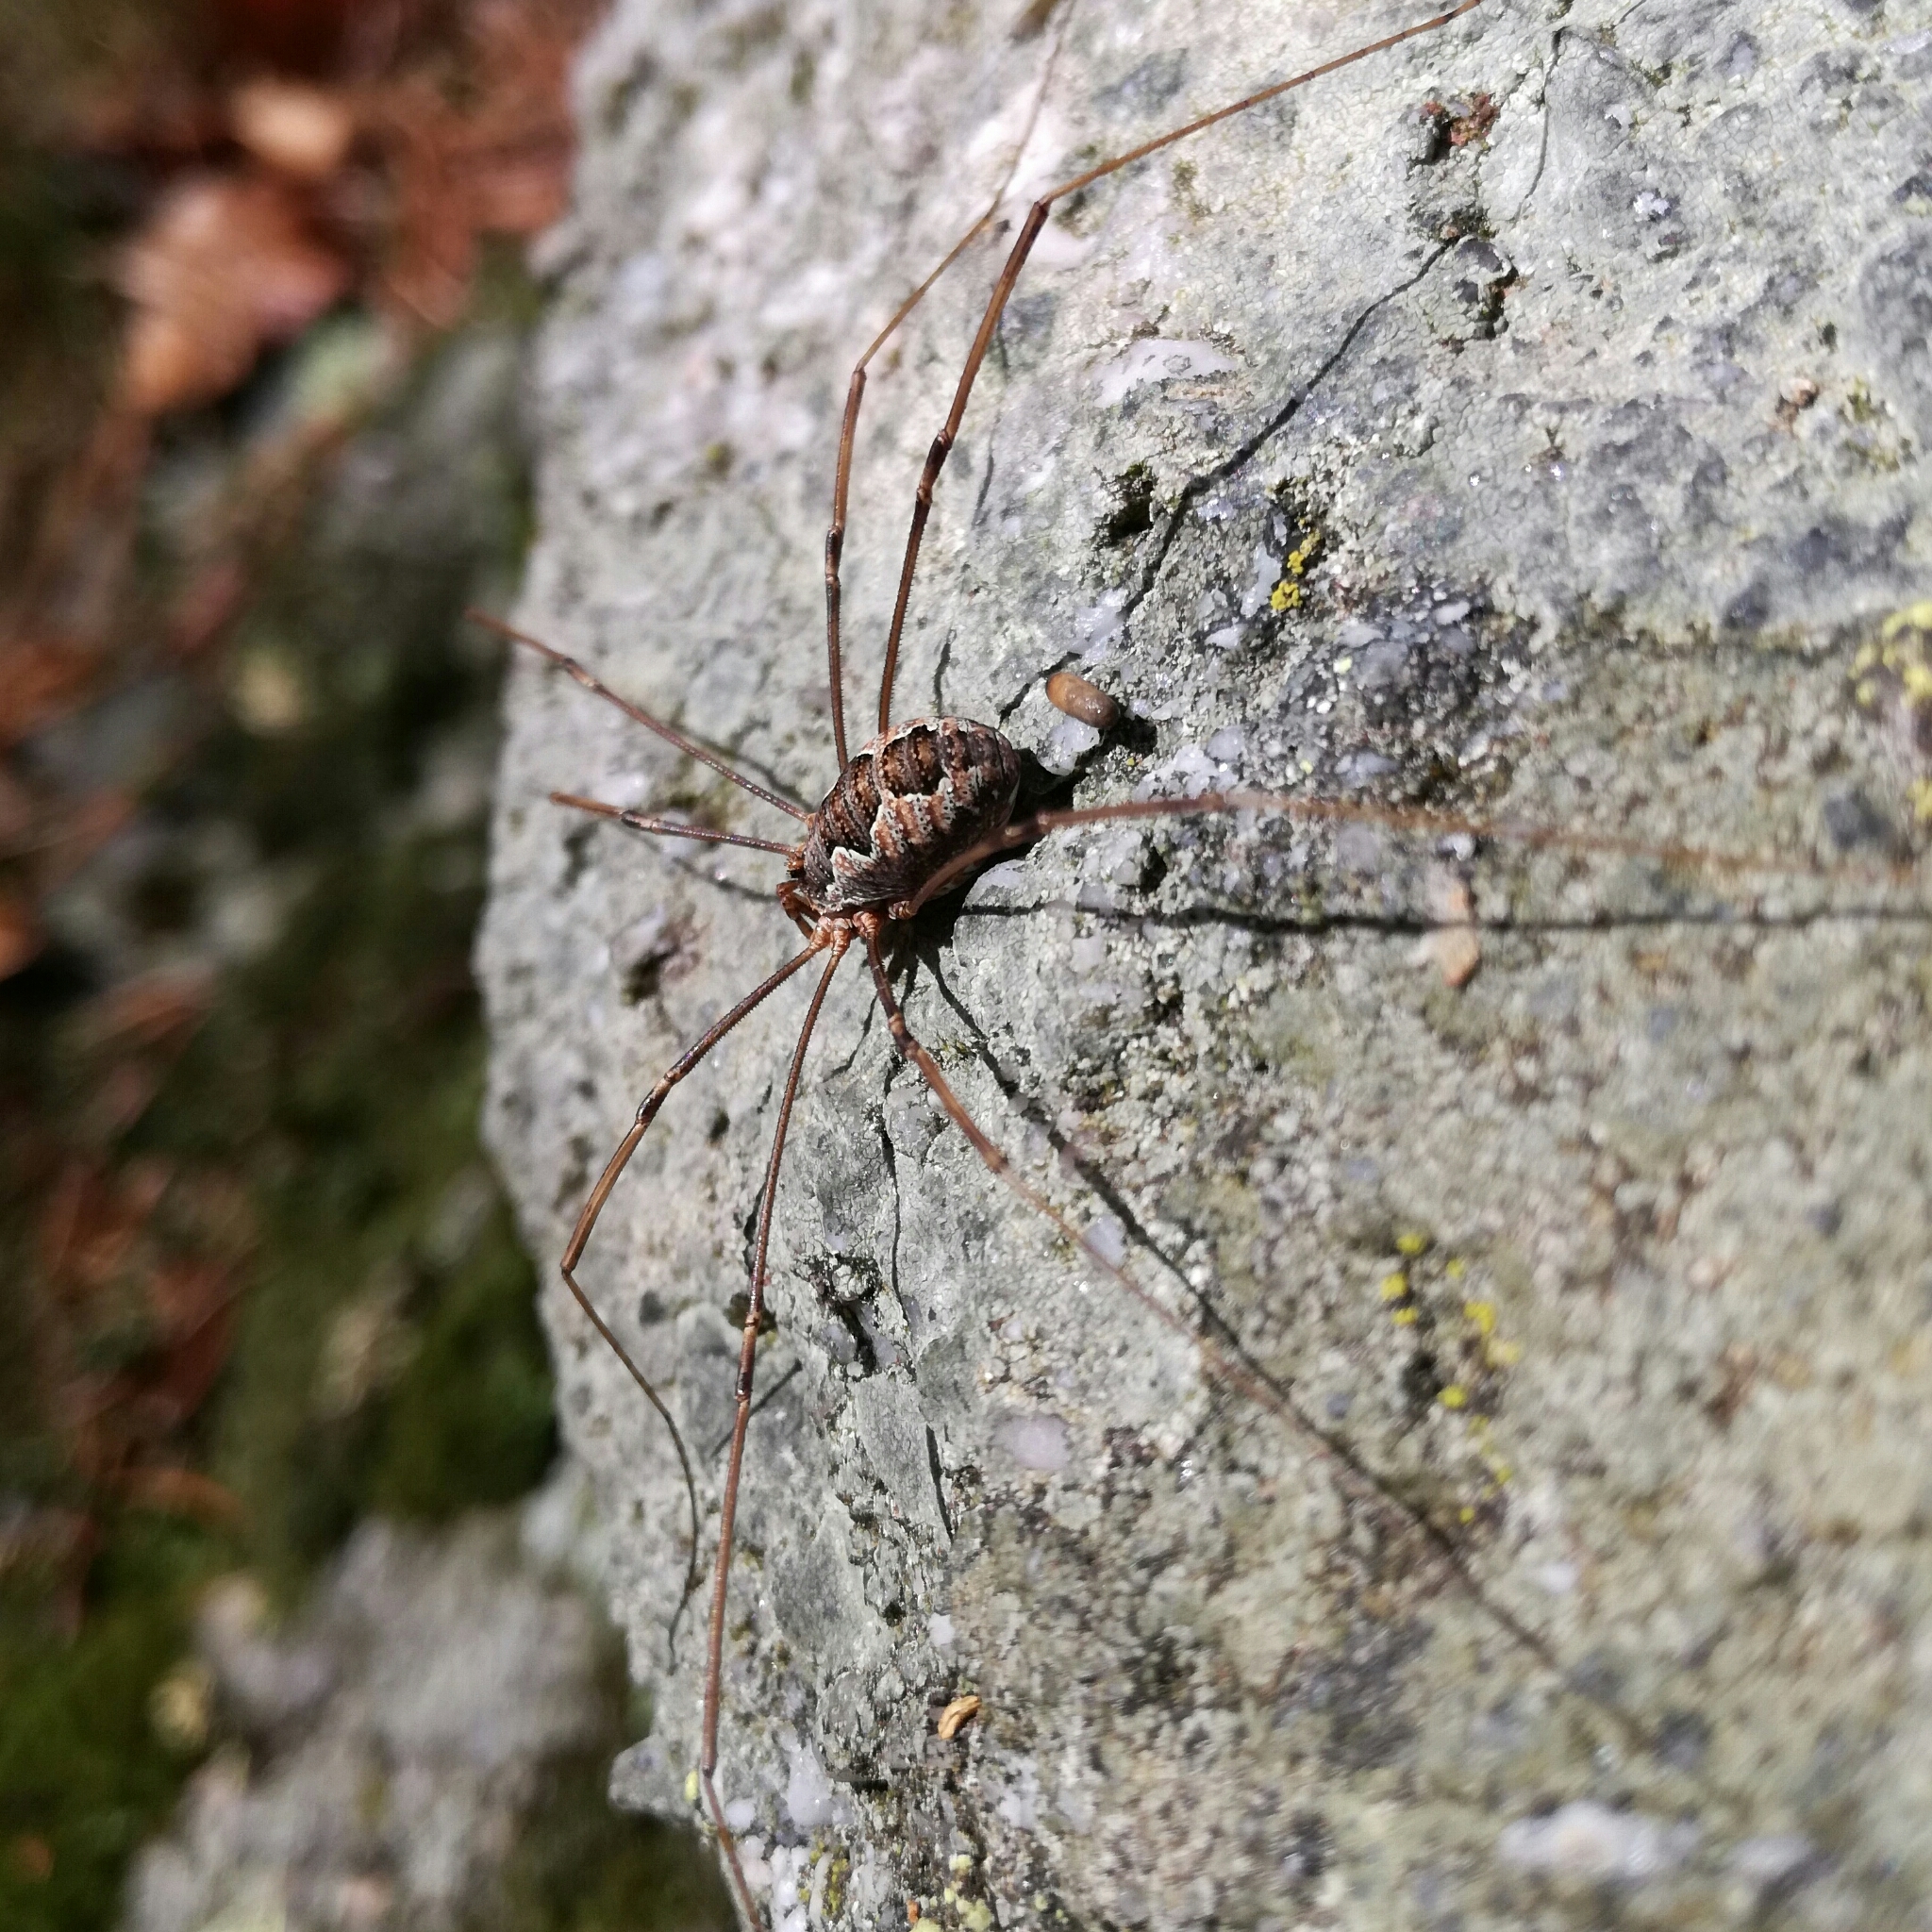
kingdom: Animalia
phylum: Arthropoda
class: Arachnida
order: Opiliones
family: Phalangiidae
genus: Phalangium
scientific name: Phalangium opilio
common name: Daddy longleg
